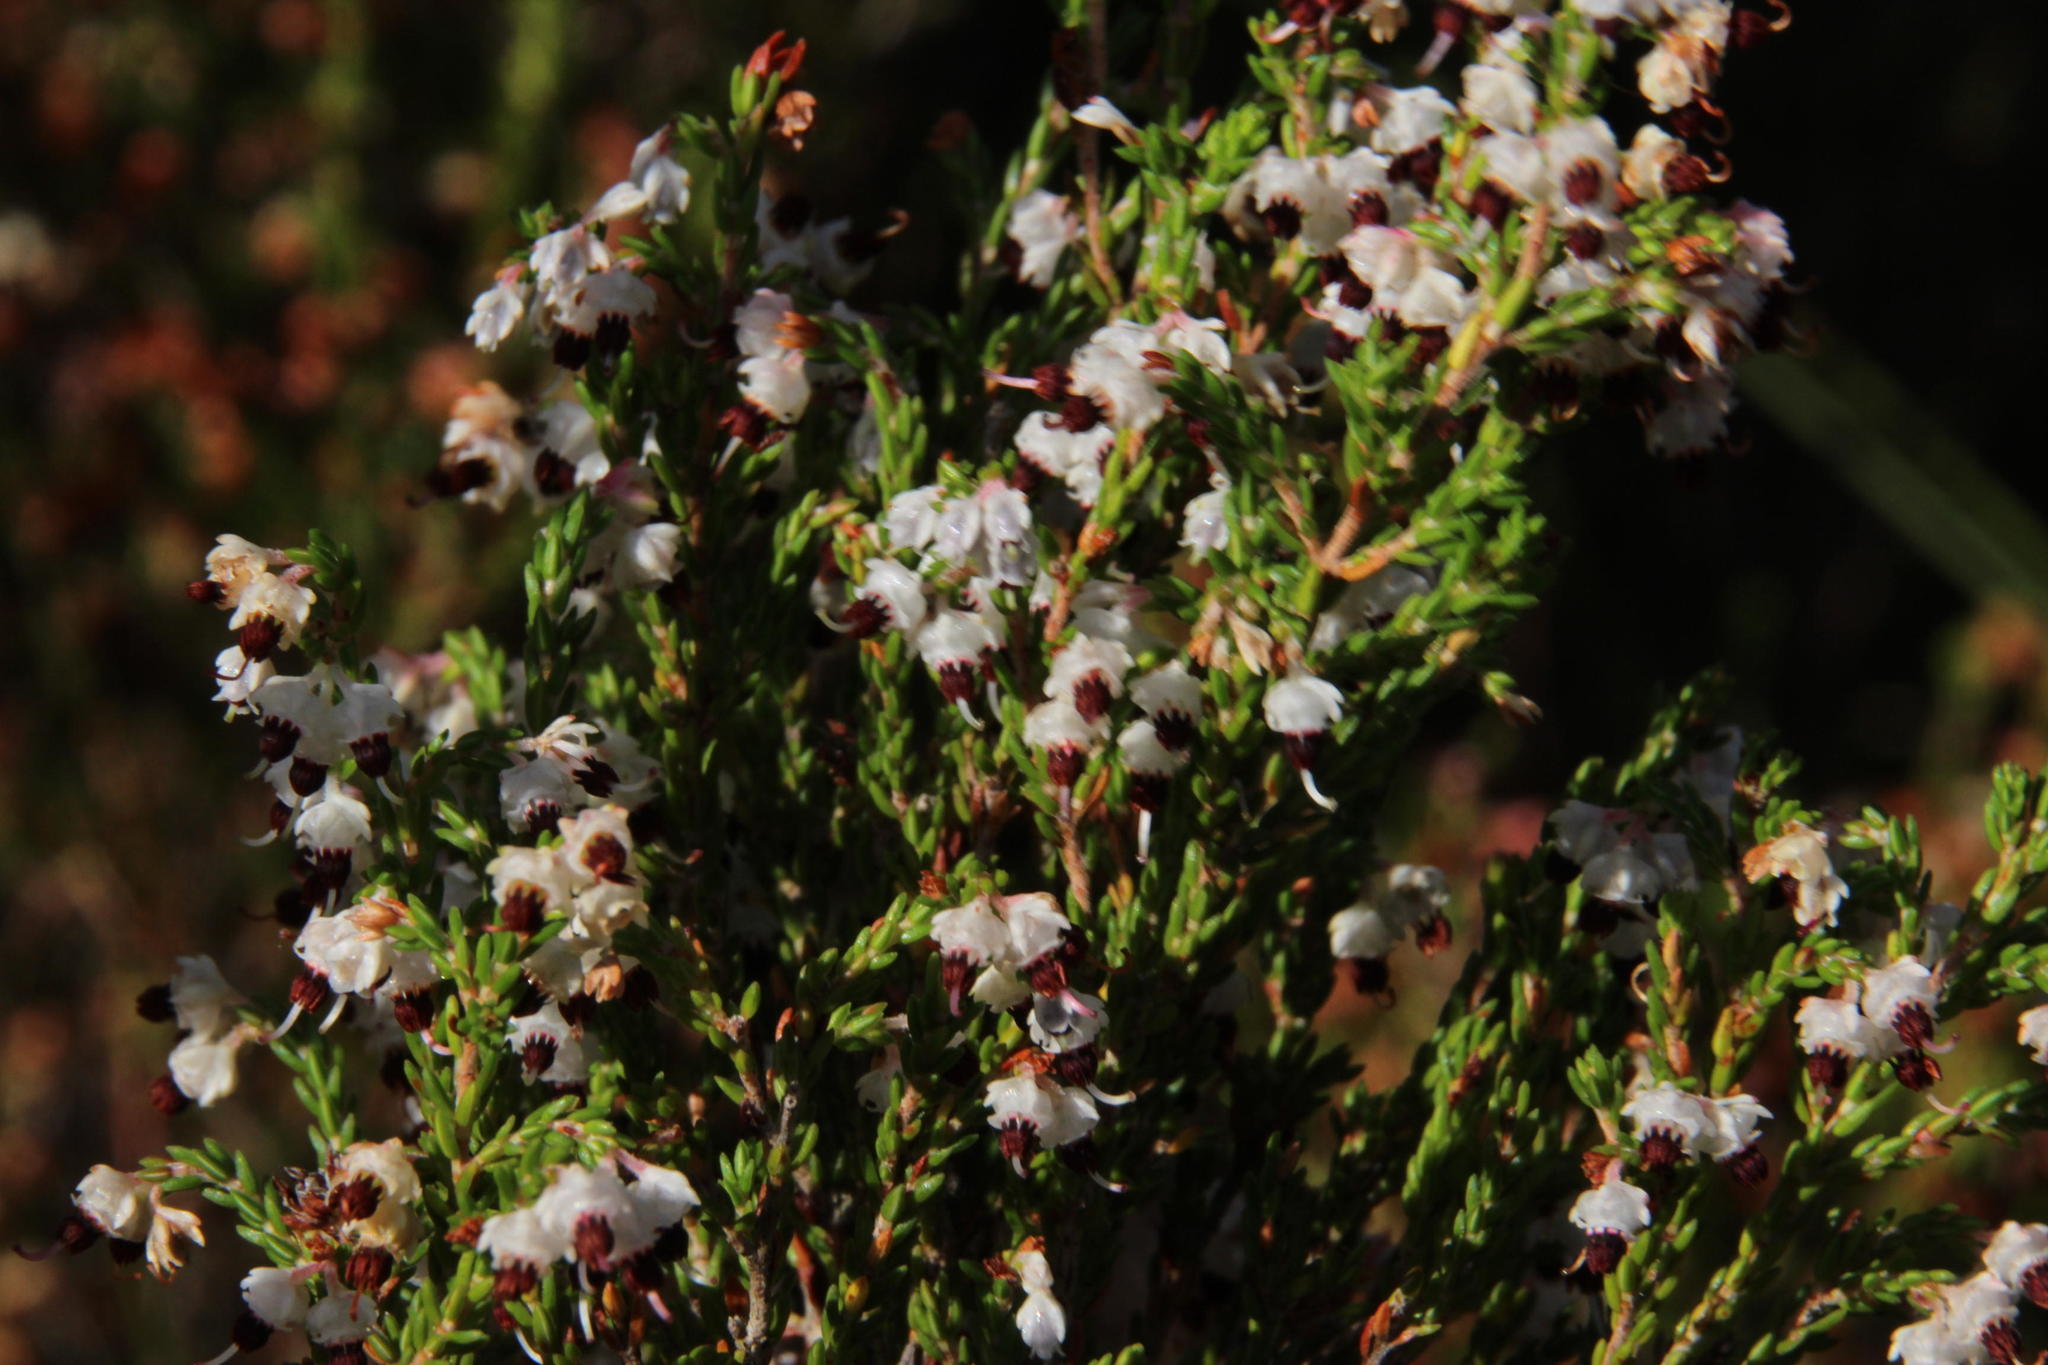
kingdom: Plantae
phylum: Tracheophyta
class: Magnoliopsida
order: Ericales
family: Ericaceae
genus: Erica
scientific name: Erica triceps
